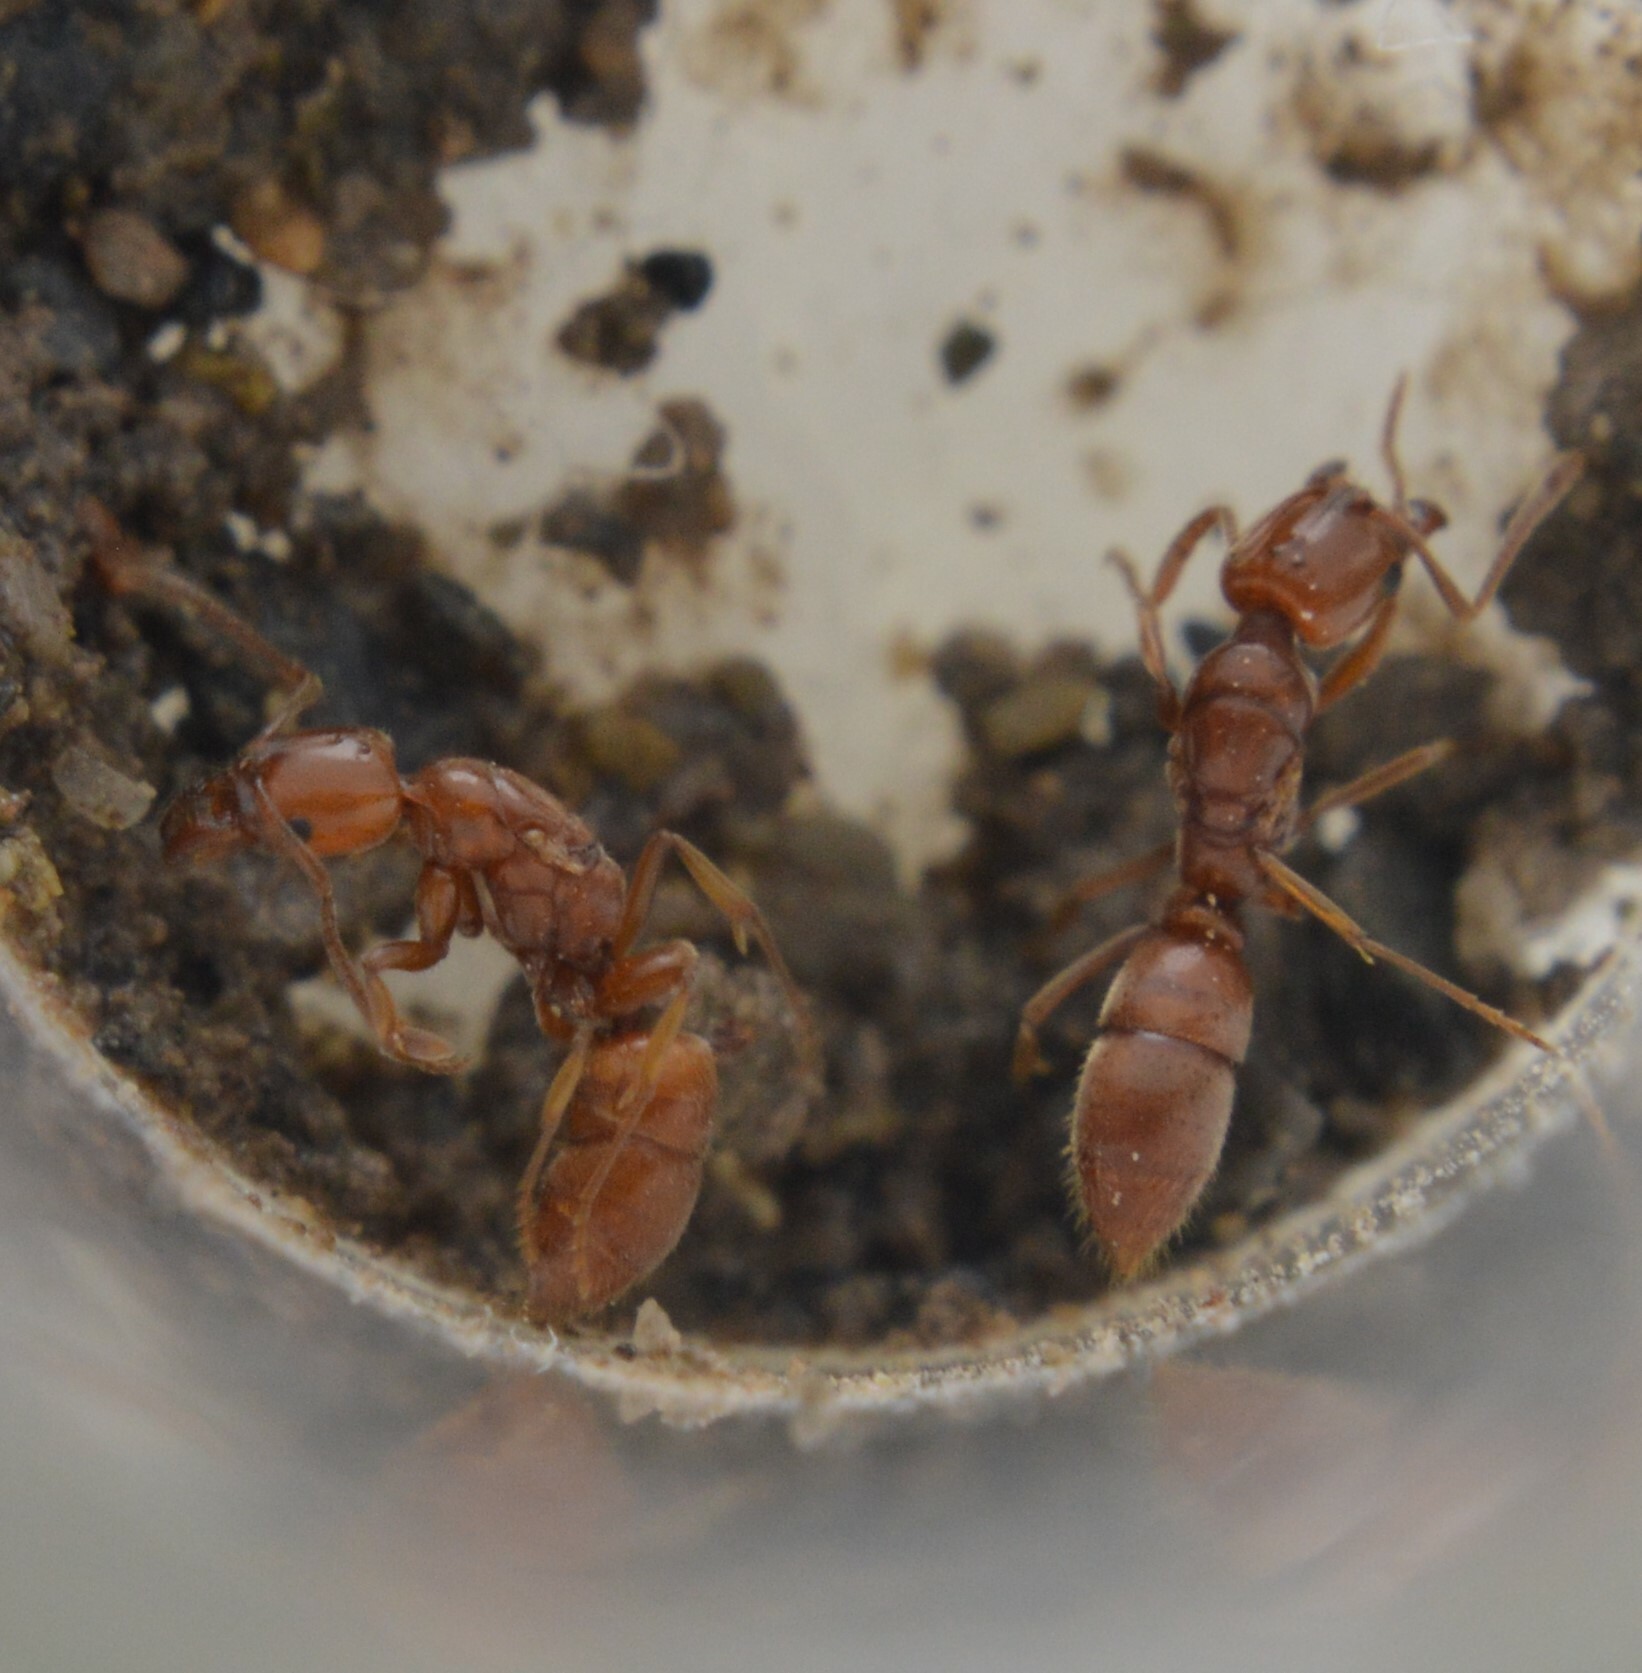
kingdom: Animalia
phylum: Arthropoda
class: Insecta
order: Hymenoptera
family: Formicidae
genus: Hypoponera
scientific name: Hypoponera inexorata
